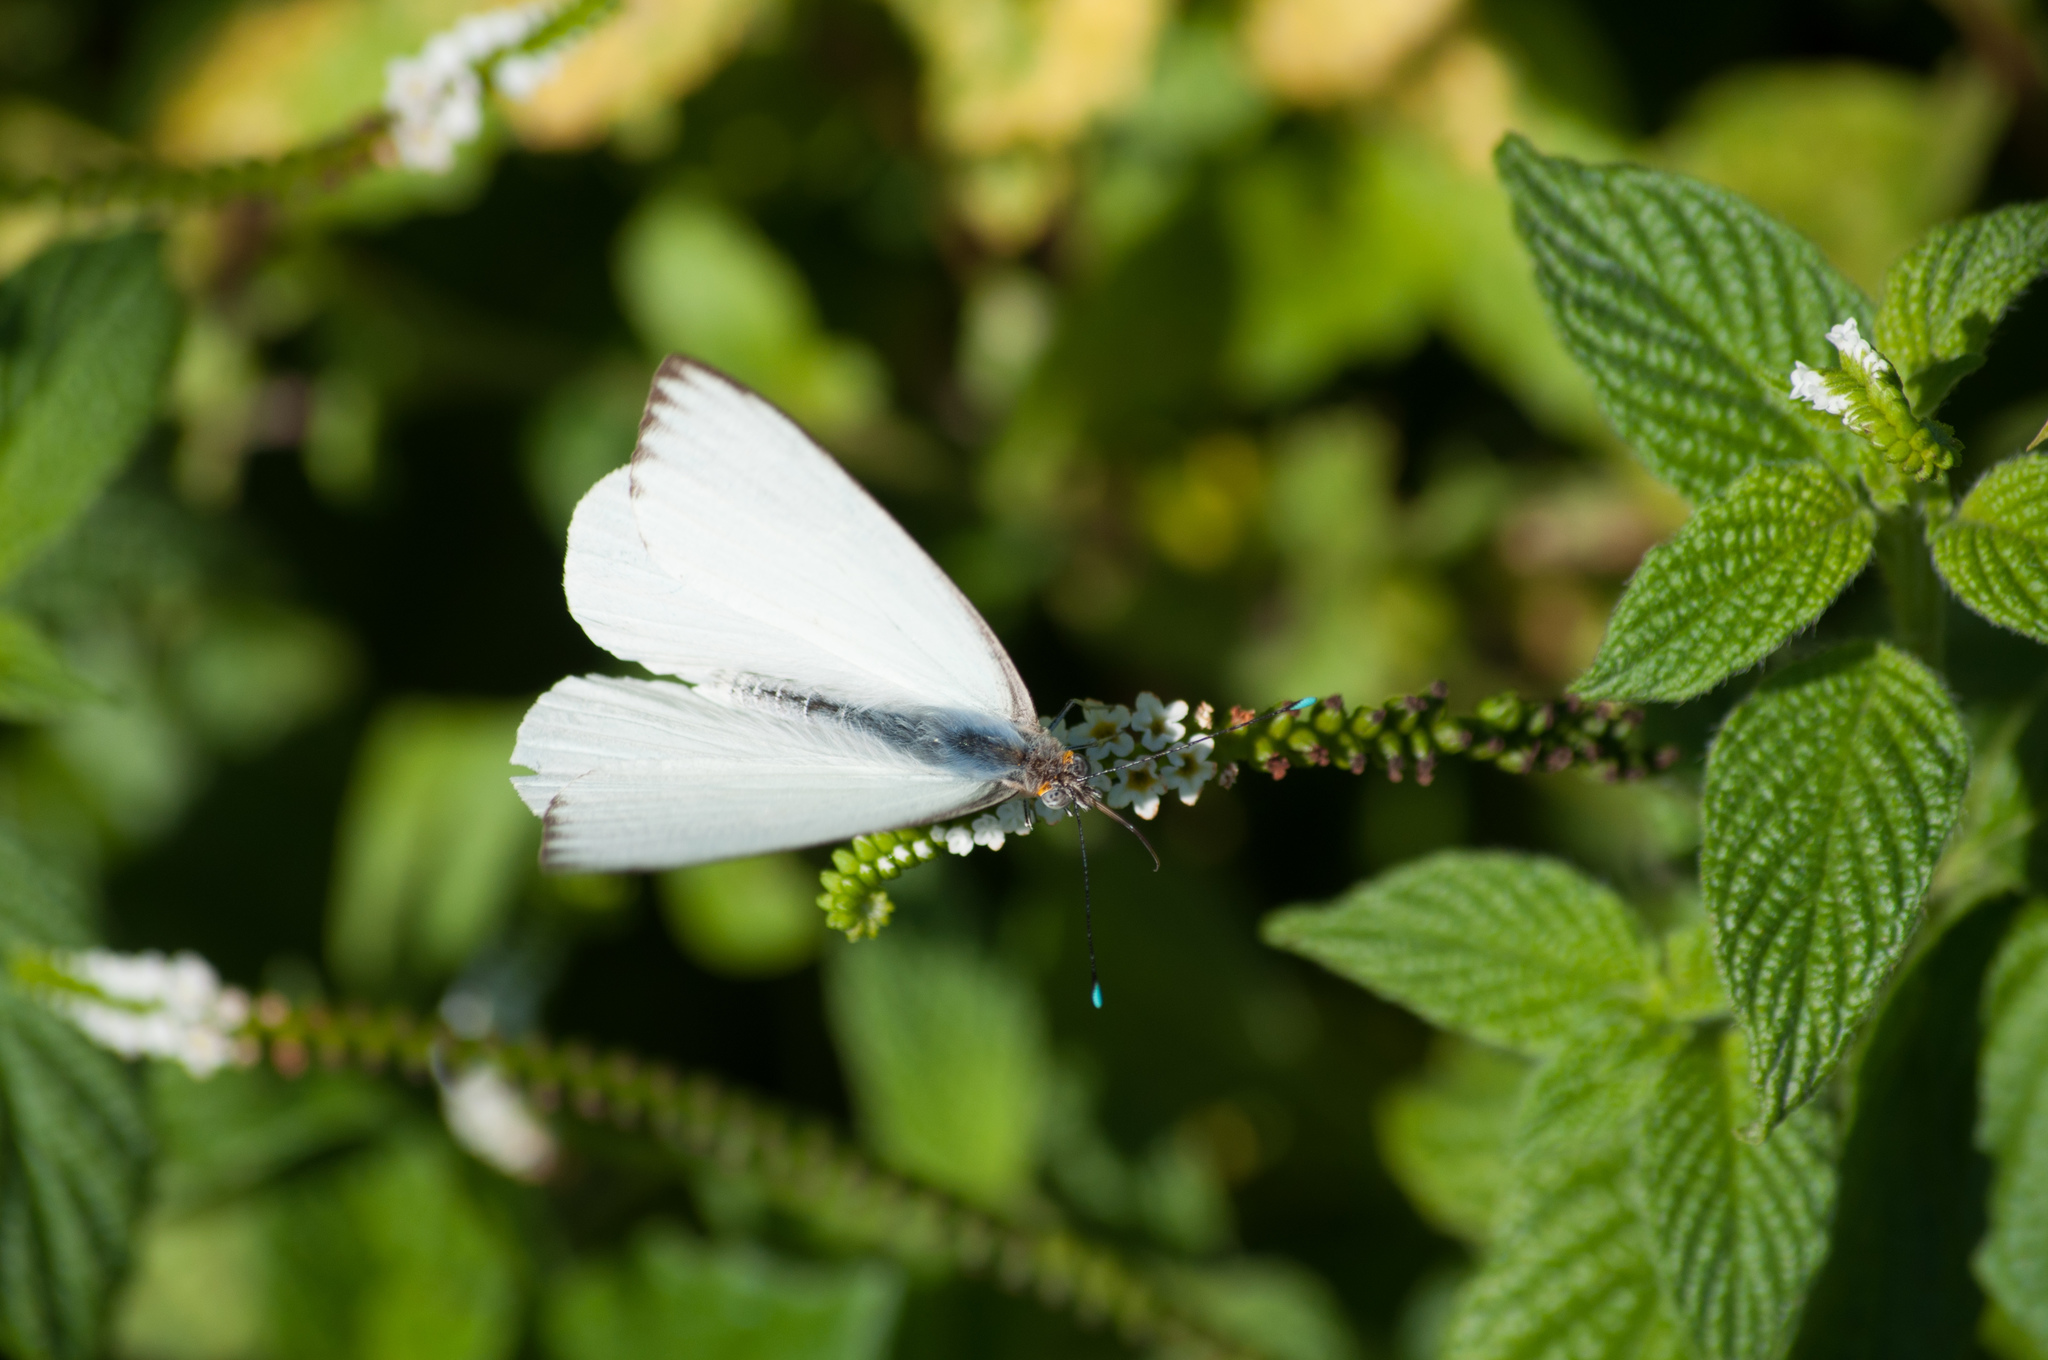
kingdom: Animalia
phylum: Arthropoda
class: Insecta
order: Lepidoptera
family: Pieridae
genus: Ascia
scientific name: Ascia monuste
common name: Great southern white
